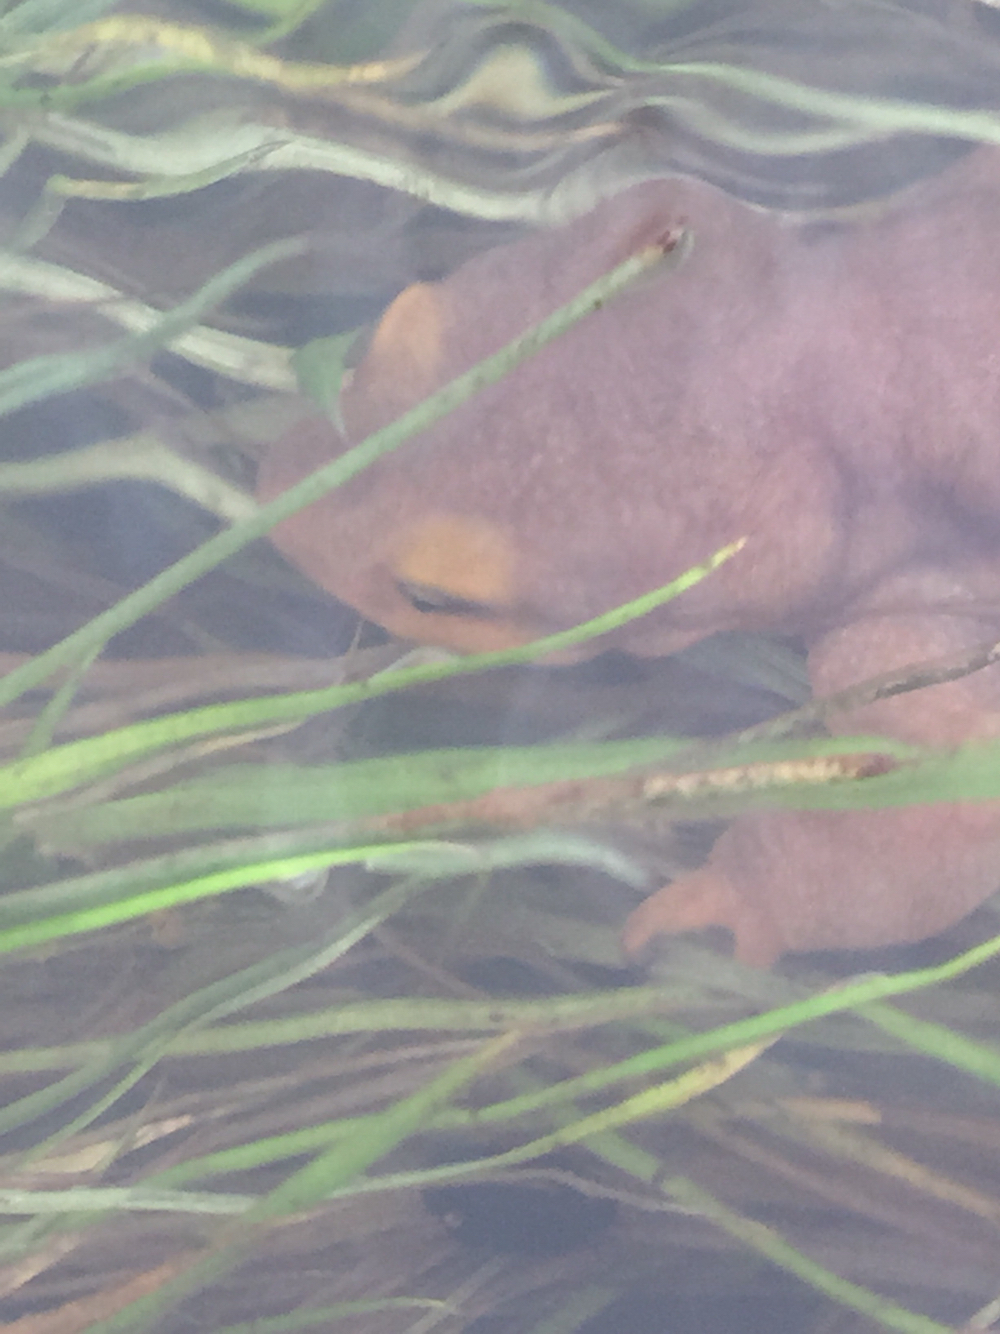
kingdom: Animalia
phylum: Chordata
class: Amphibia
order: Caudata
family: Salamandridae
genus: Taricha
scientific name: Taricha torosa
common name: California newt
